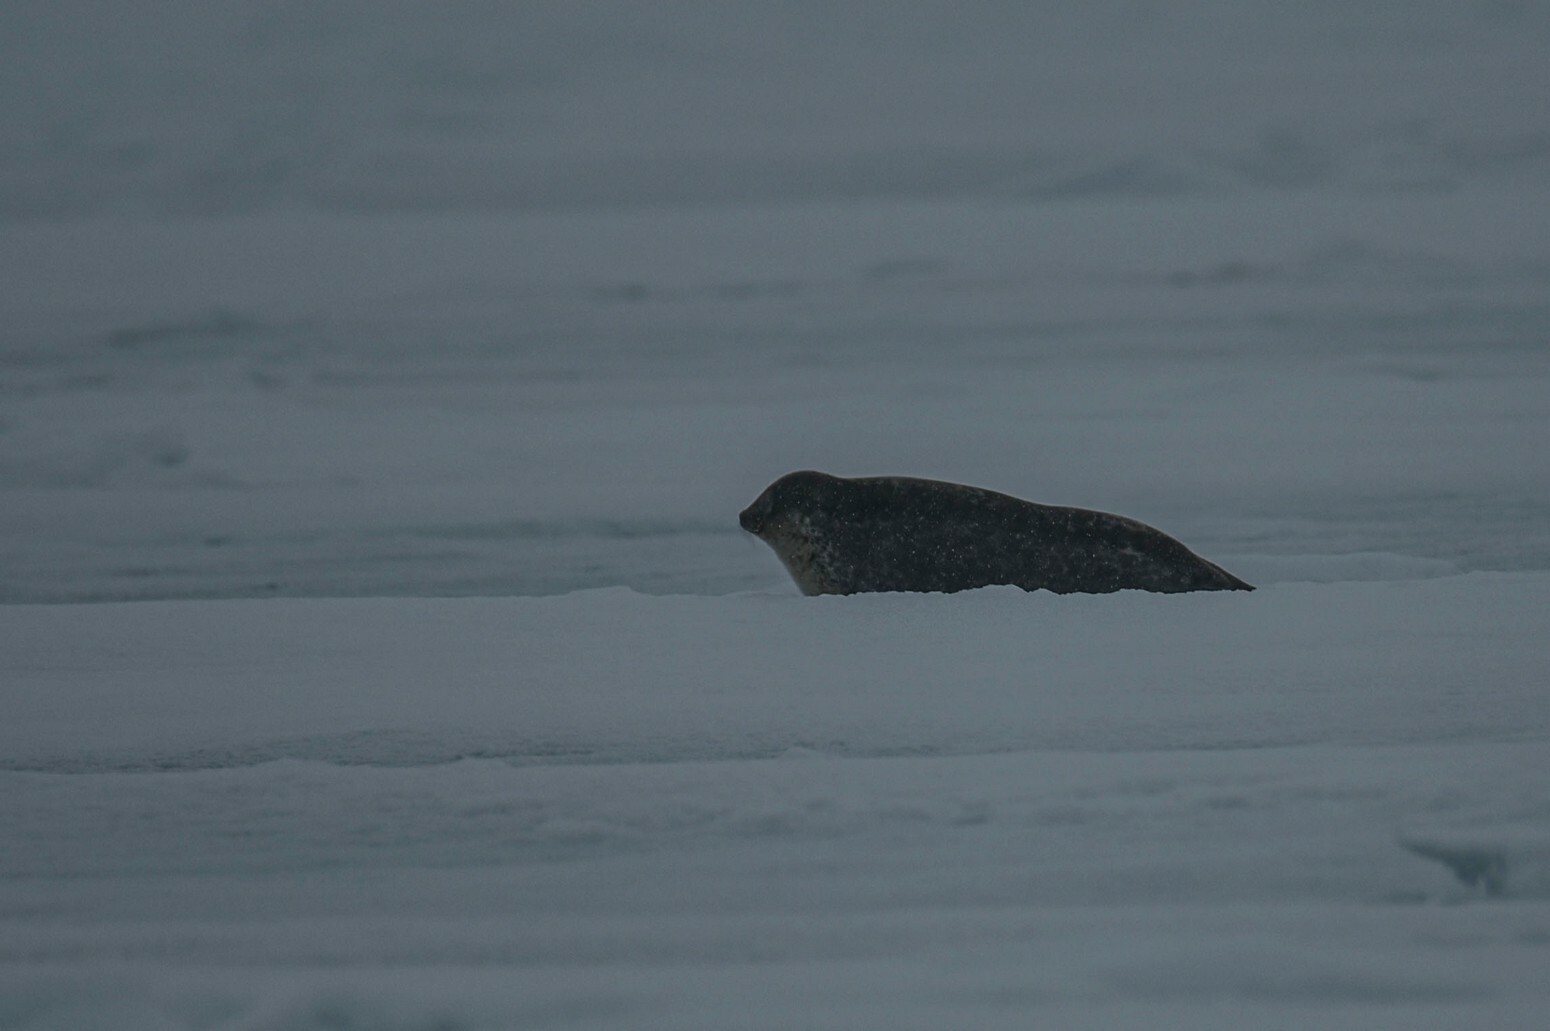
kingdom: Animalia
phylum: Chordata
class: Mammalia
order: Carnivora
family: Phocidae
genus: Pusa
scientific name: Pusa hispida
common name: Ringed seal
